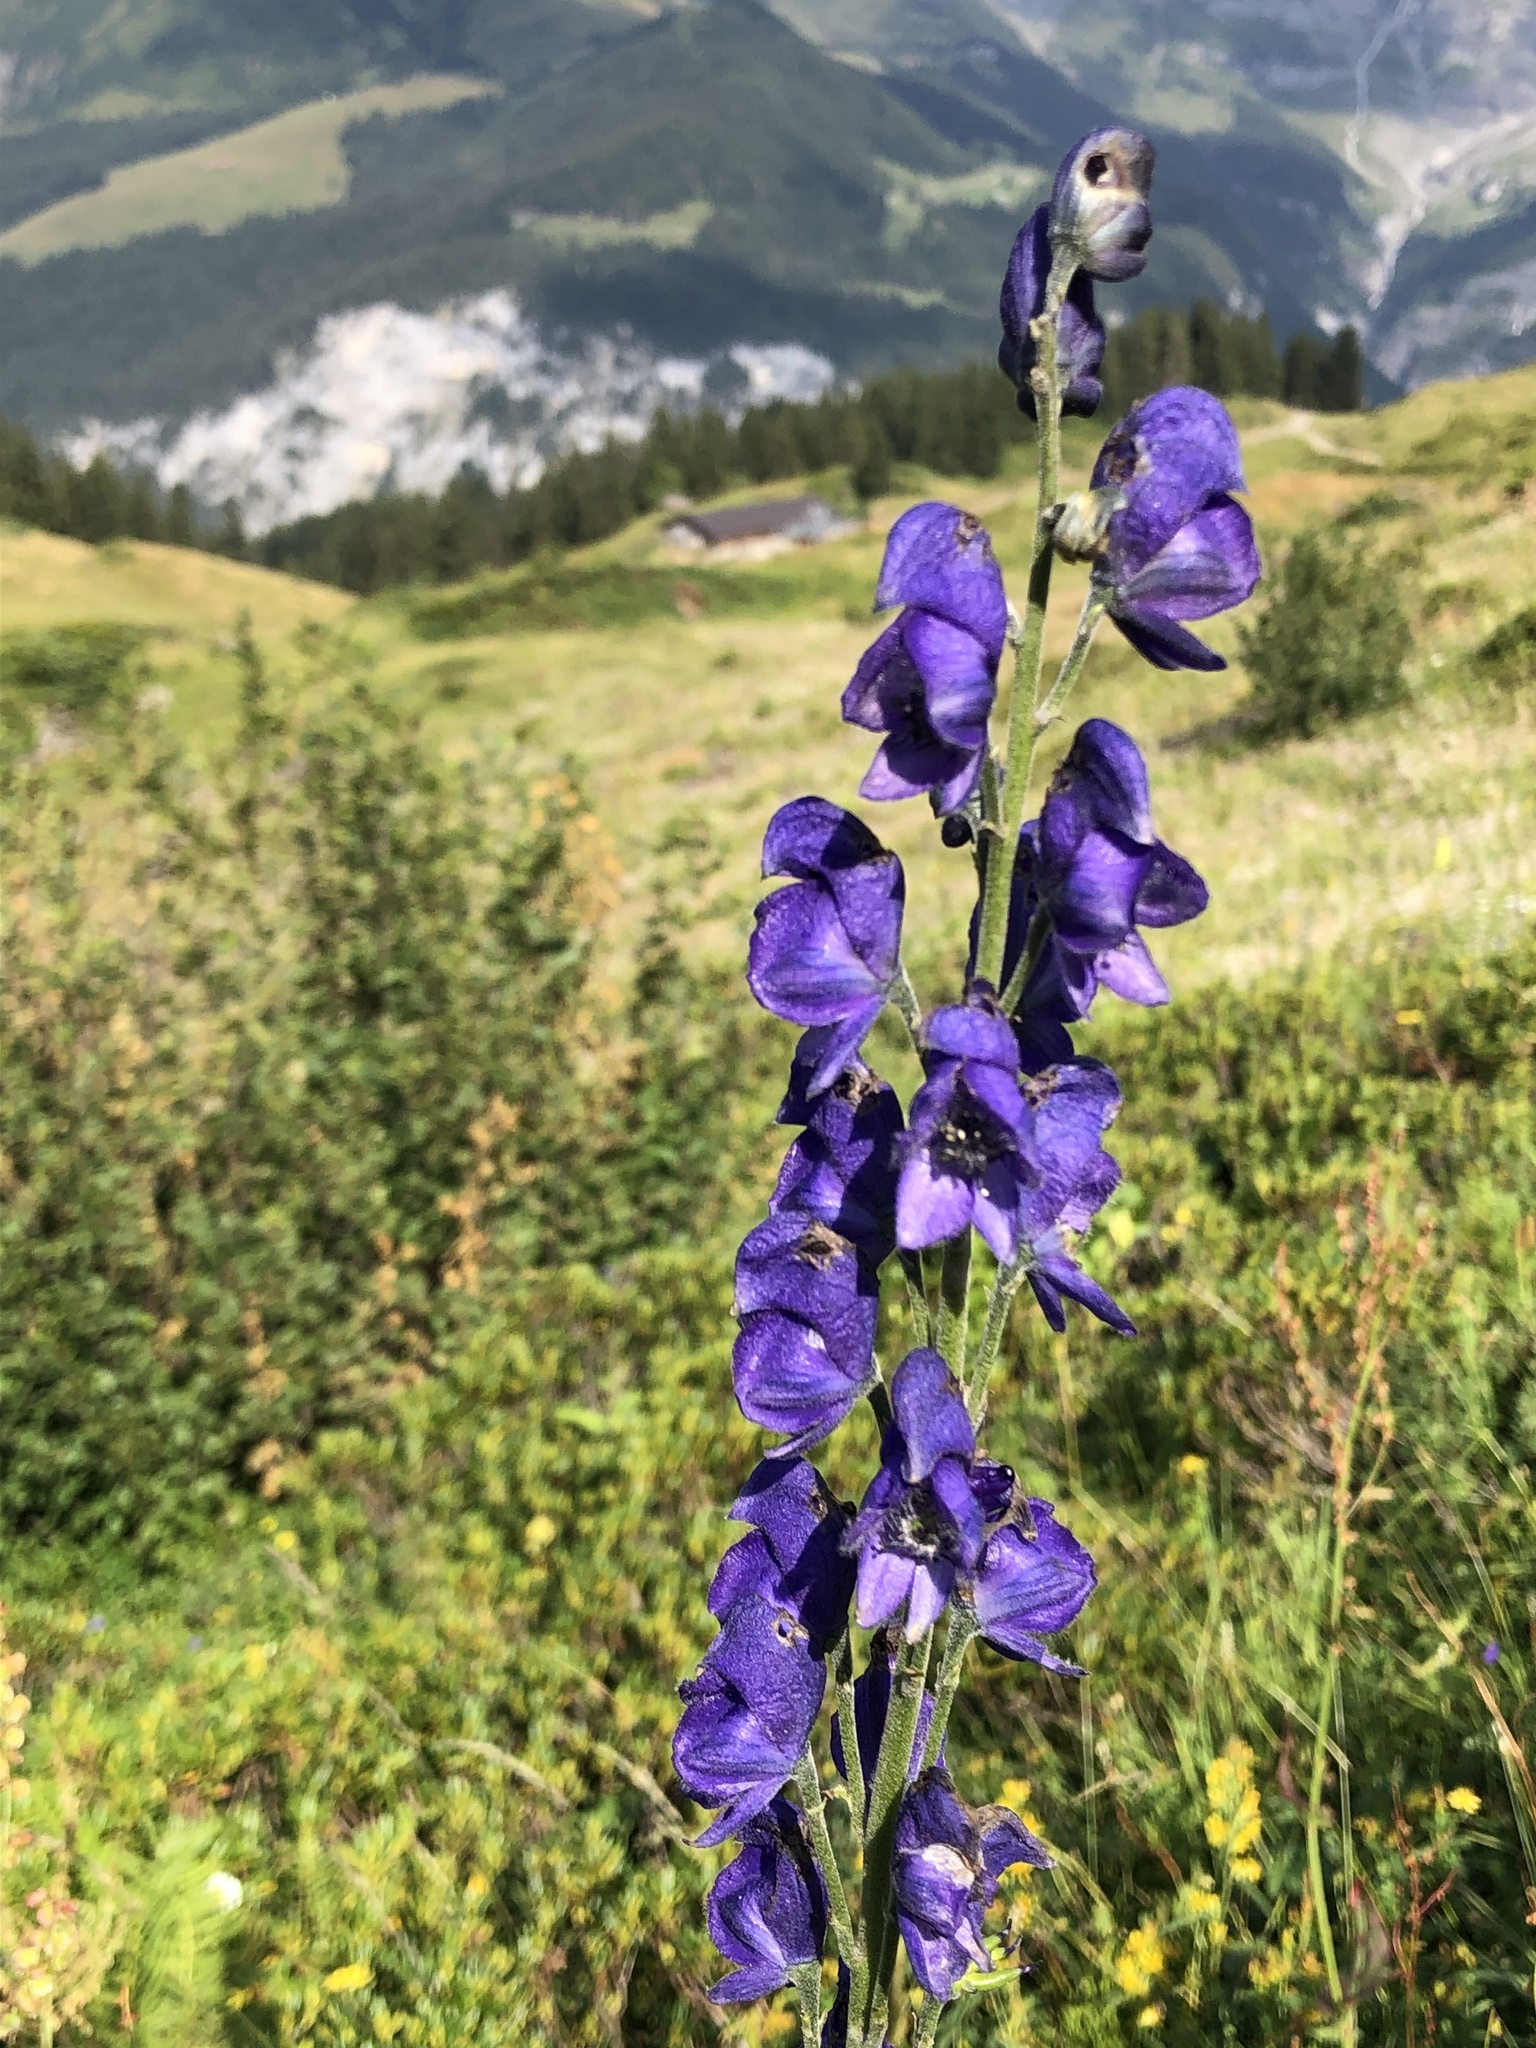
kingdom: Plantae
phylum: Tracheophyta
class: Magnoliopsida
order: Ranunculales
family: Ranunculaceae
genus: Aconitum
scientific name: Aconitum napellus
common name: Garden monkshood
